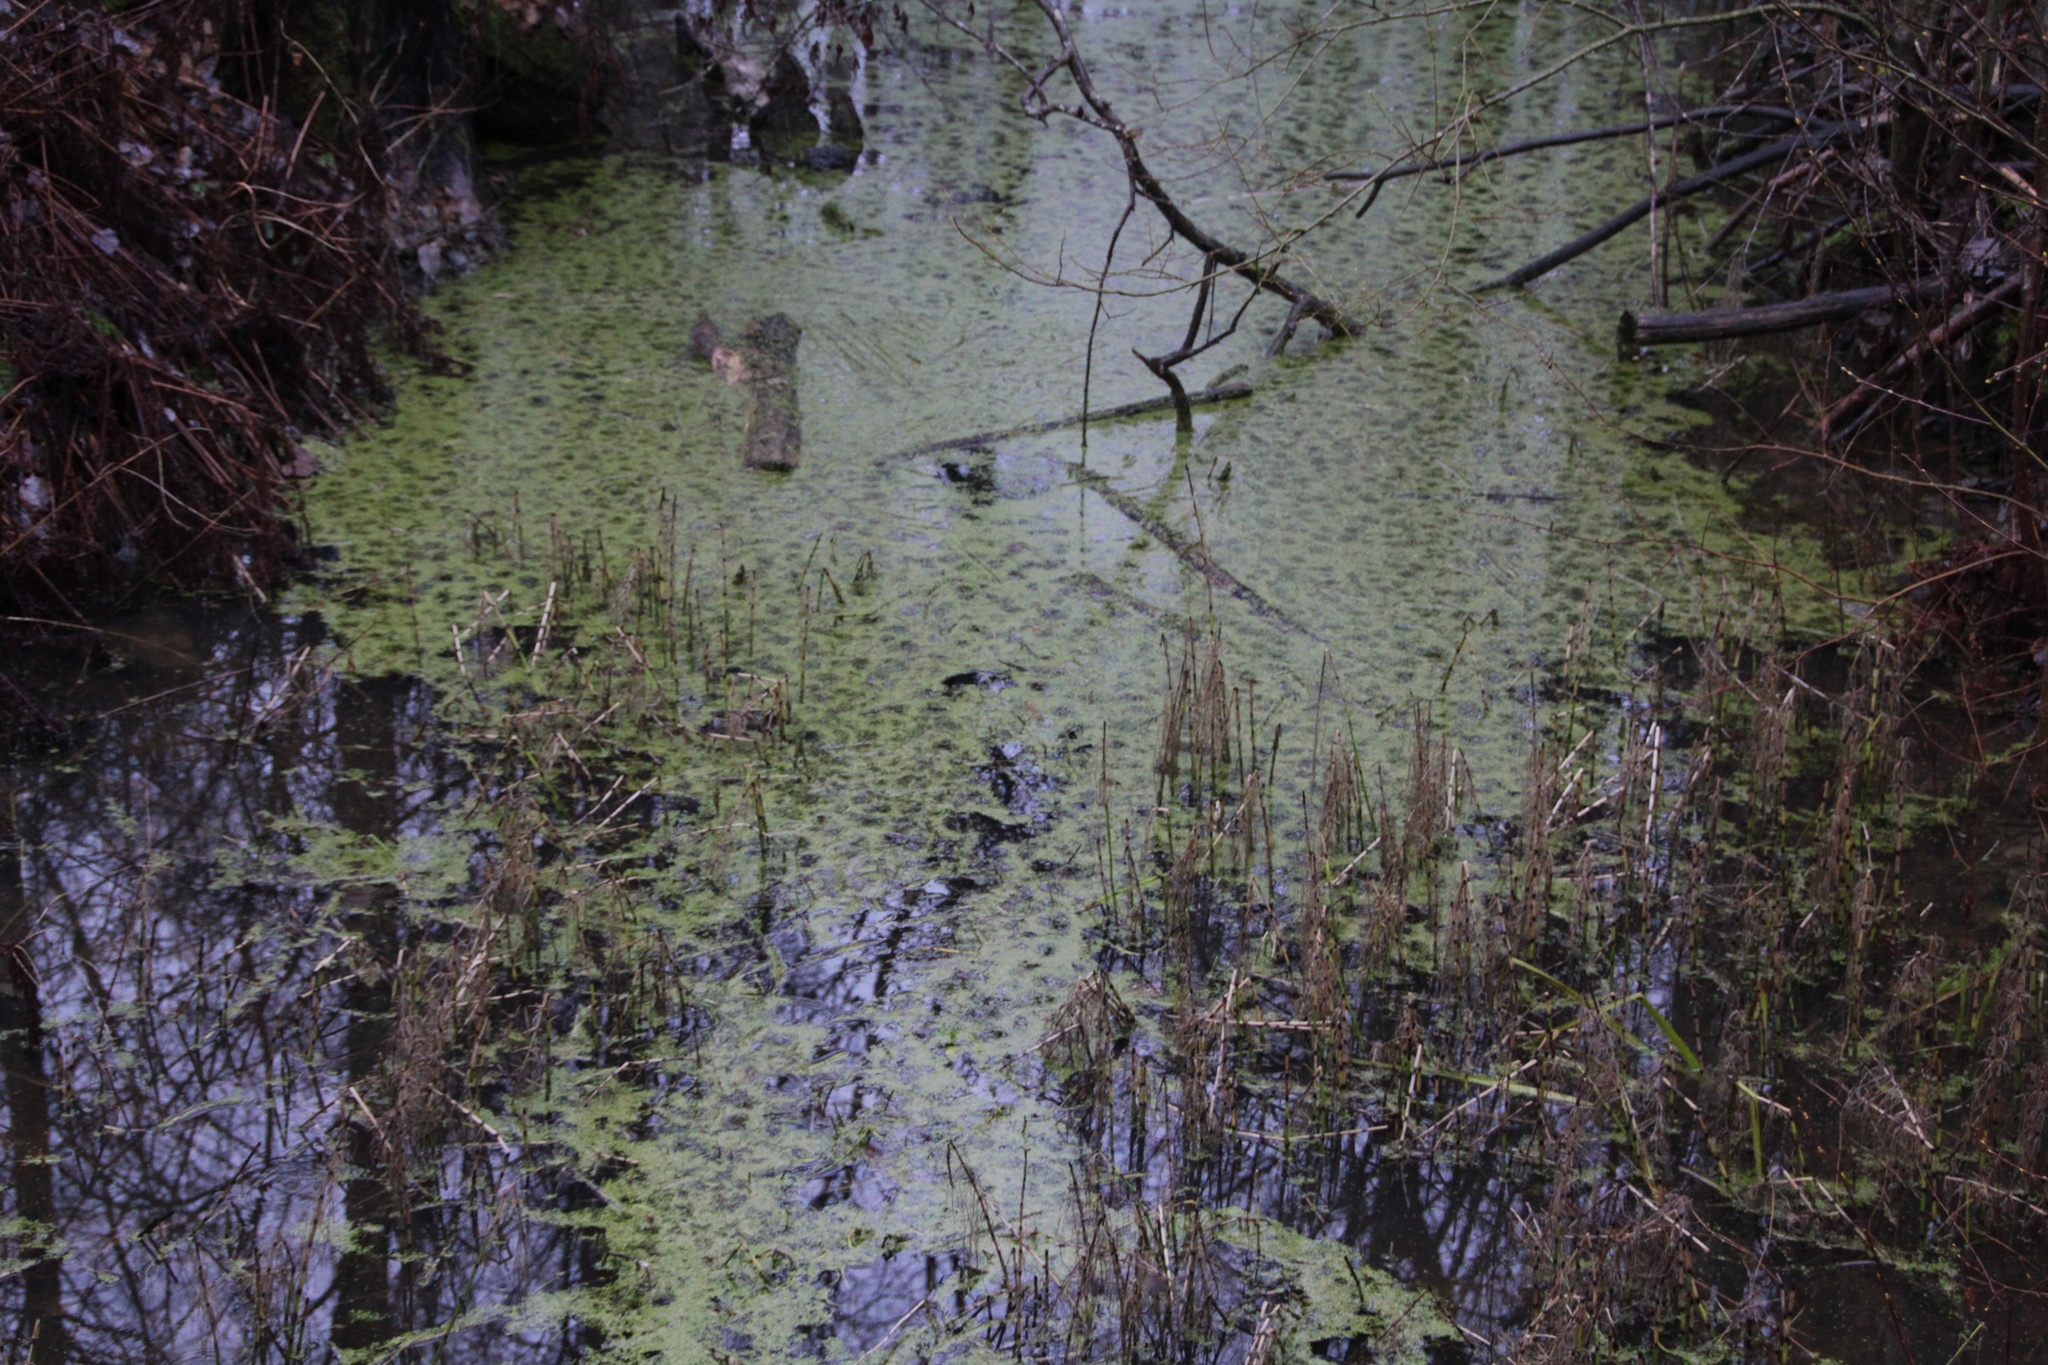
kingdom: Plantae
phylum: Tracheophyta
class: Liliopsida
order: Alismatales
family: Araceae
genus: Lemna
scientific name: Lemna minor
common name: Common duckweed
